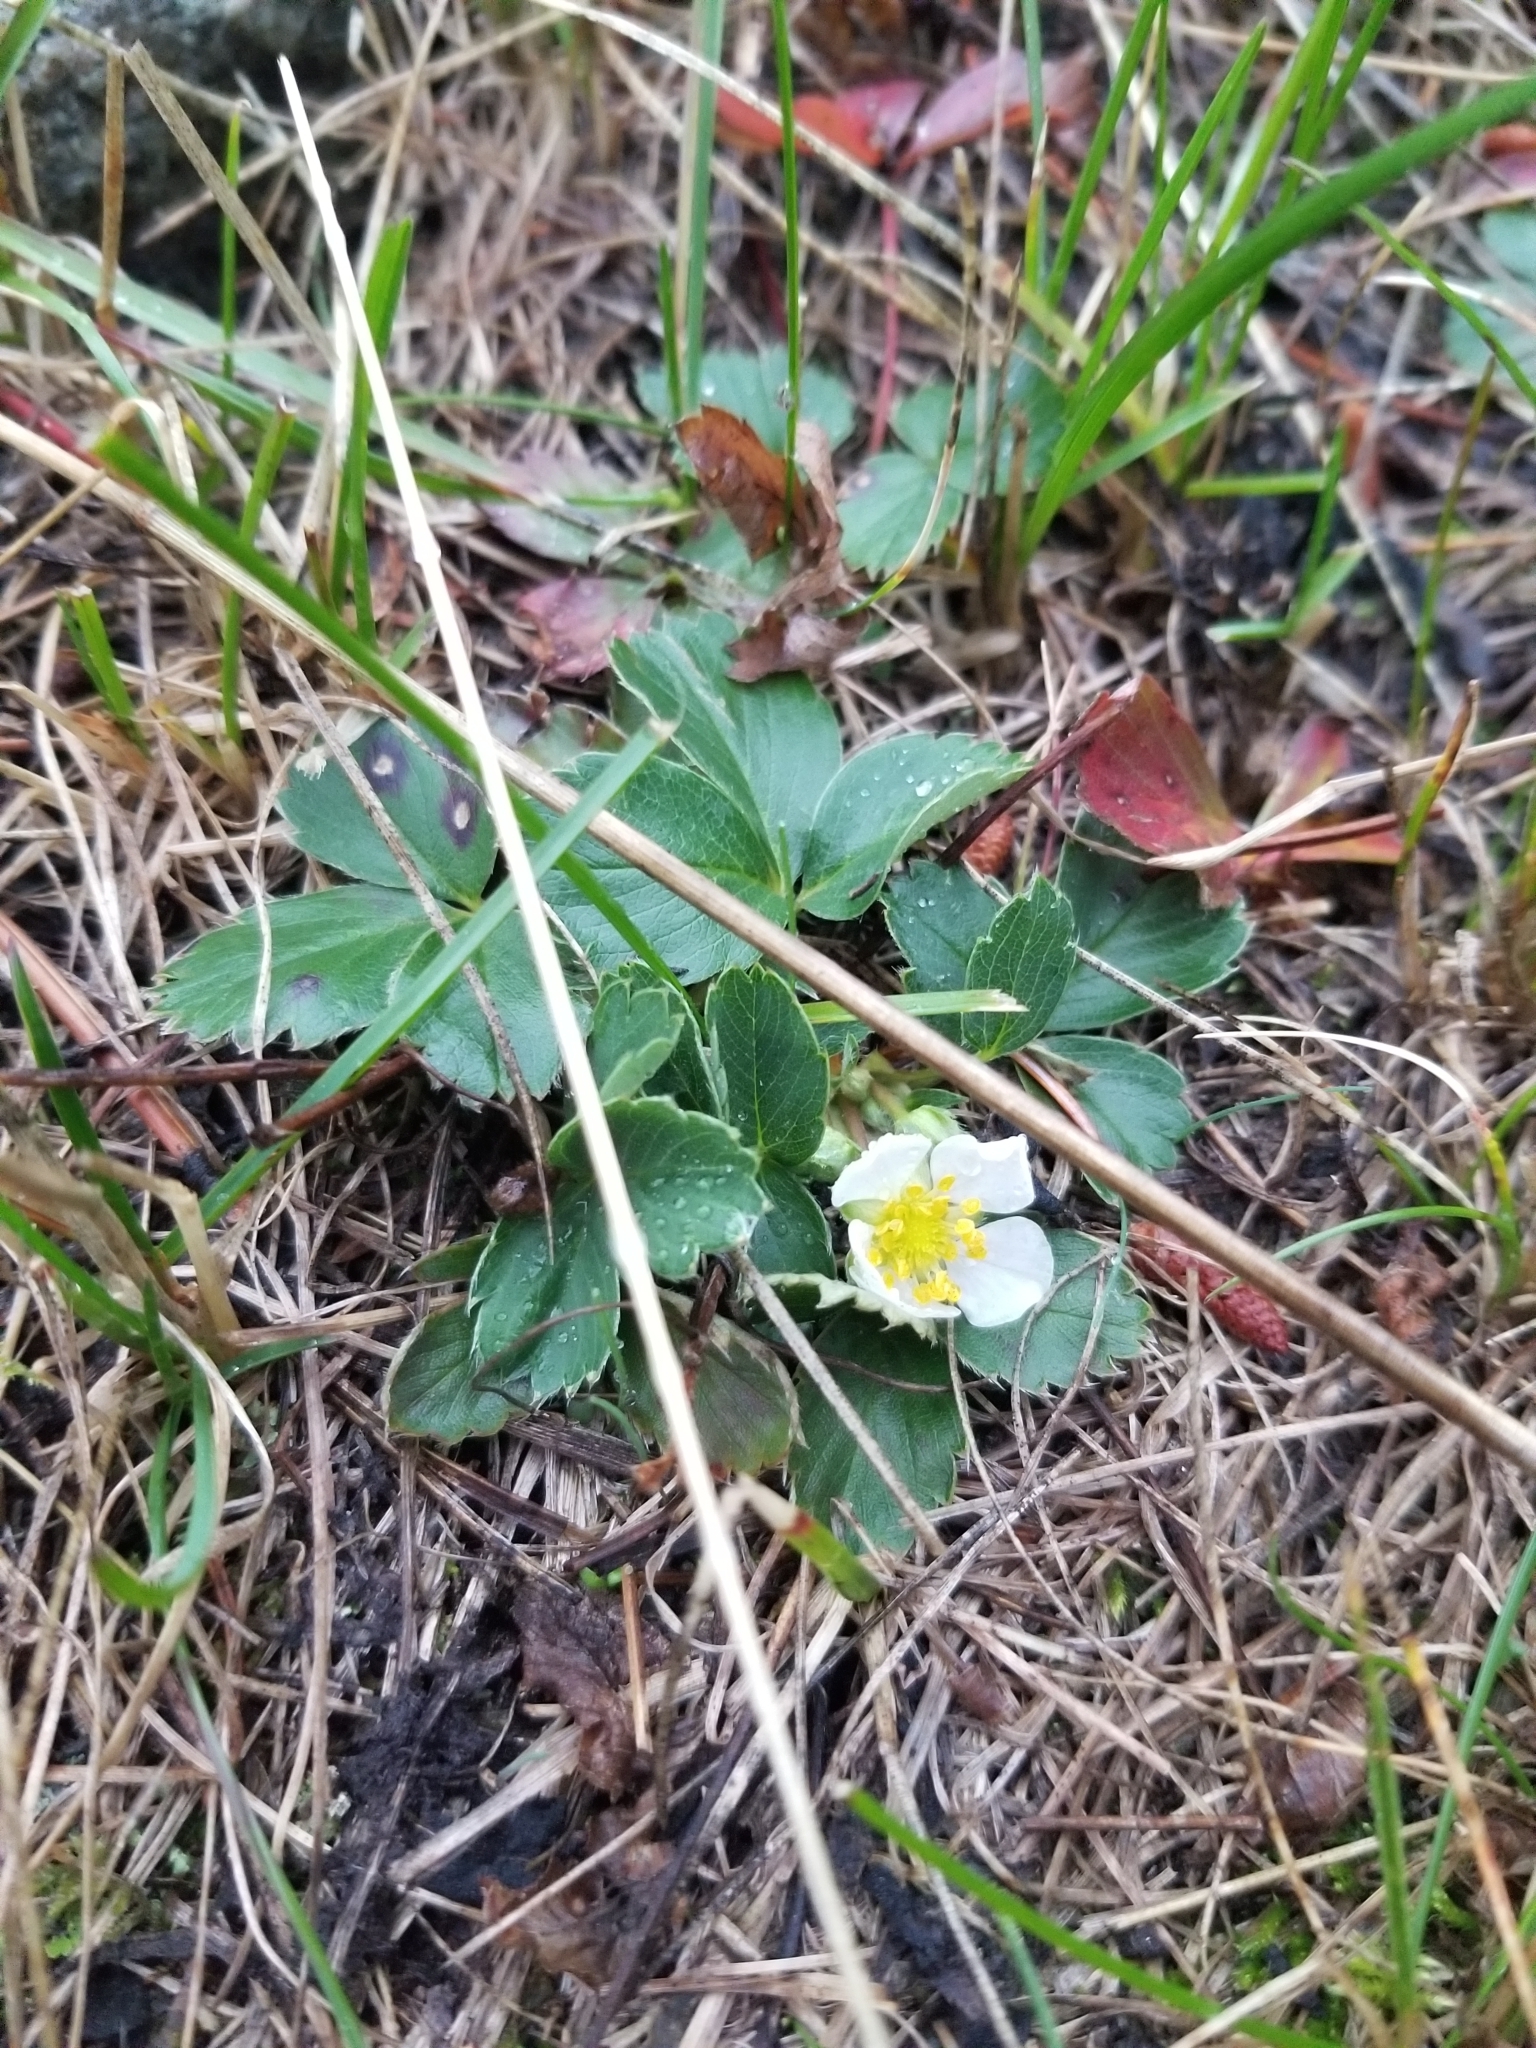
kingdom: Plantae
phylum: Tracheophyta
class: Magnoliopsida
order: Rosales
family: Rosaceae
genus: Fragaria
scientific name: Fragaria virginiana
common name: Thickleaved wild strawberry
